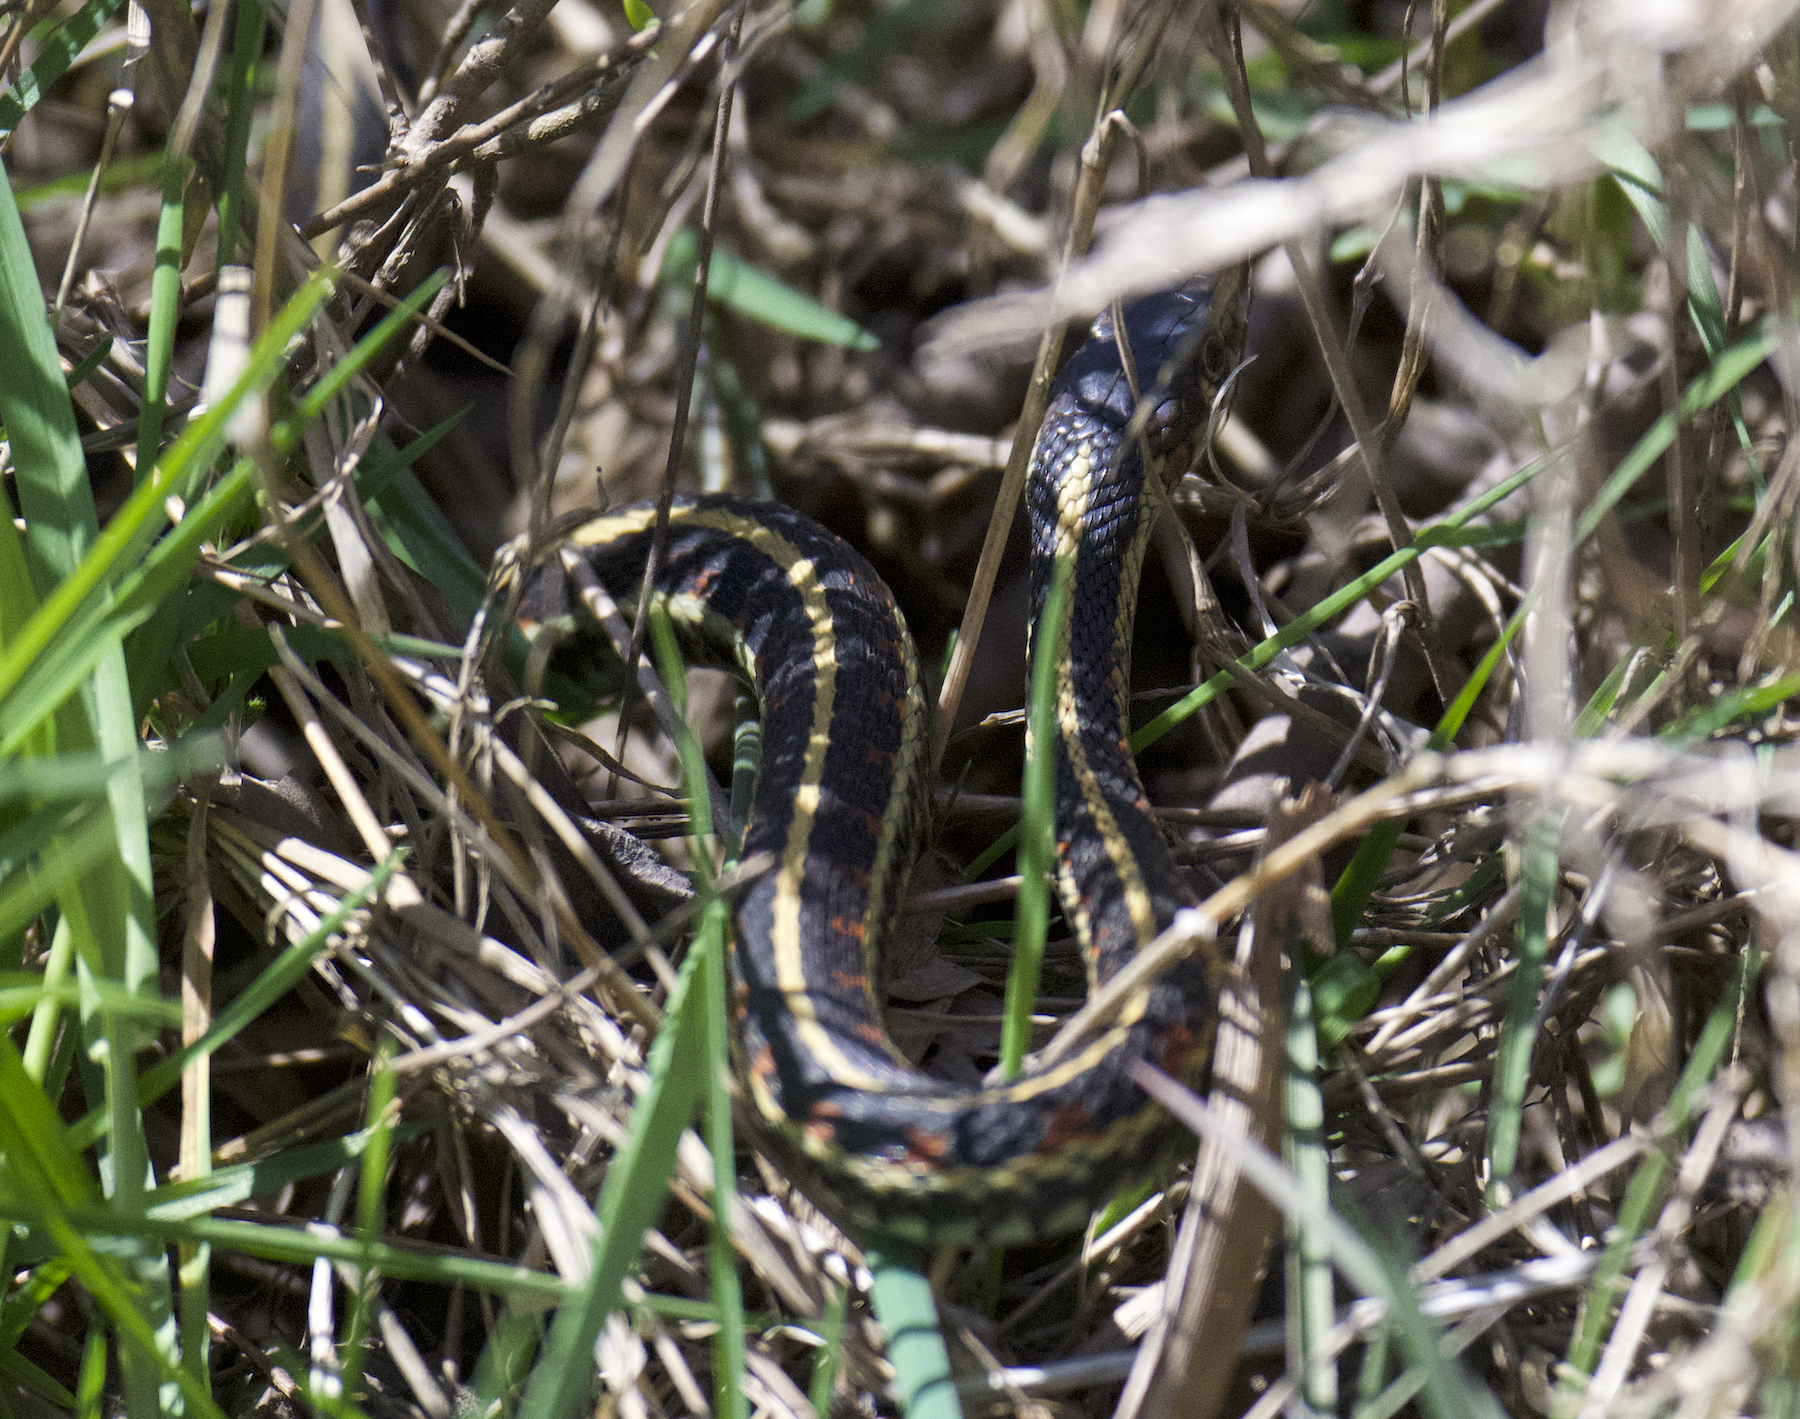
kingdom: Animalia
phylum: Chordata
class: Squamata
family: Colubridae
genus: Thamnophis
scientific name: Thamnophis sirtalis
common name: Common garter snake
